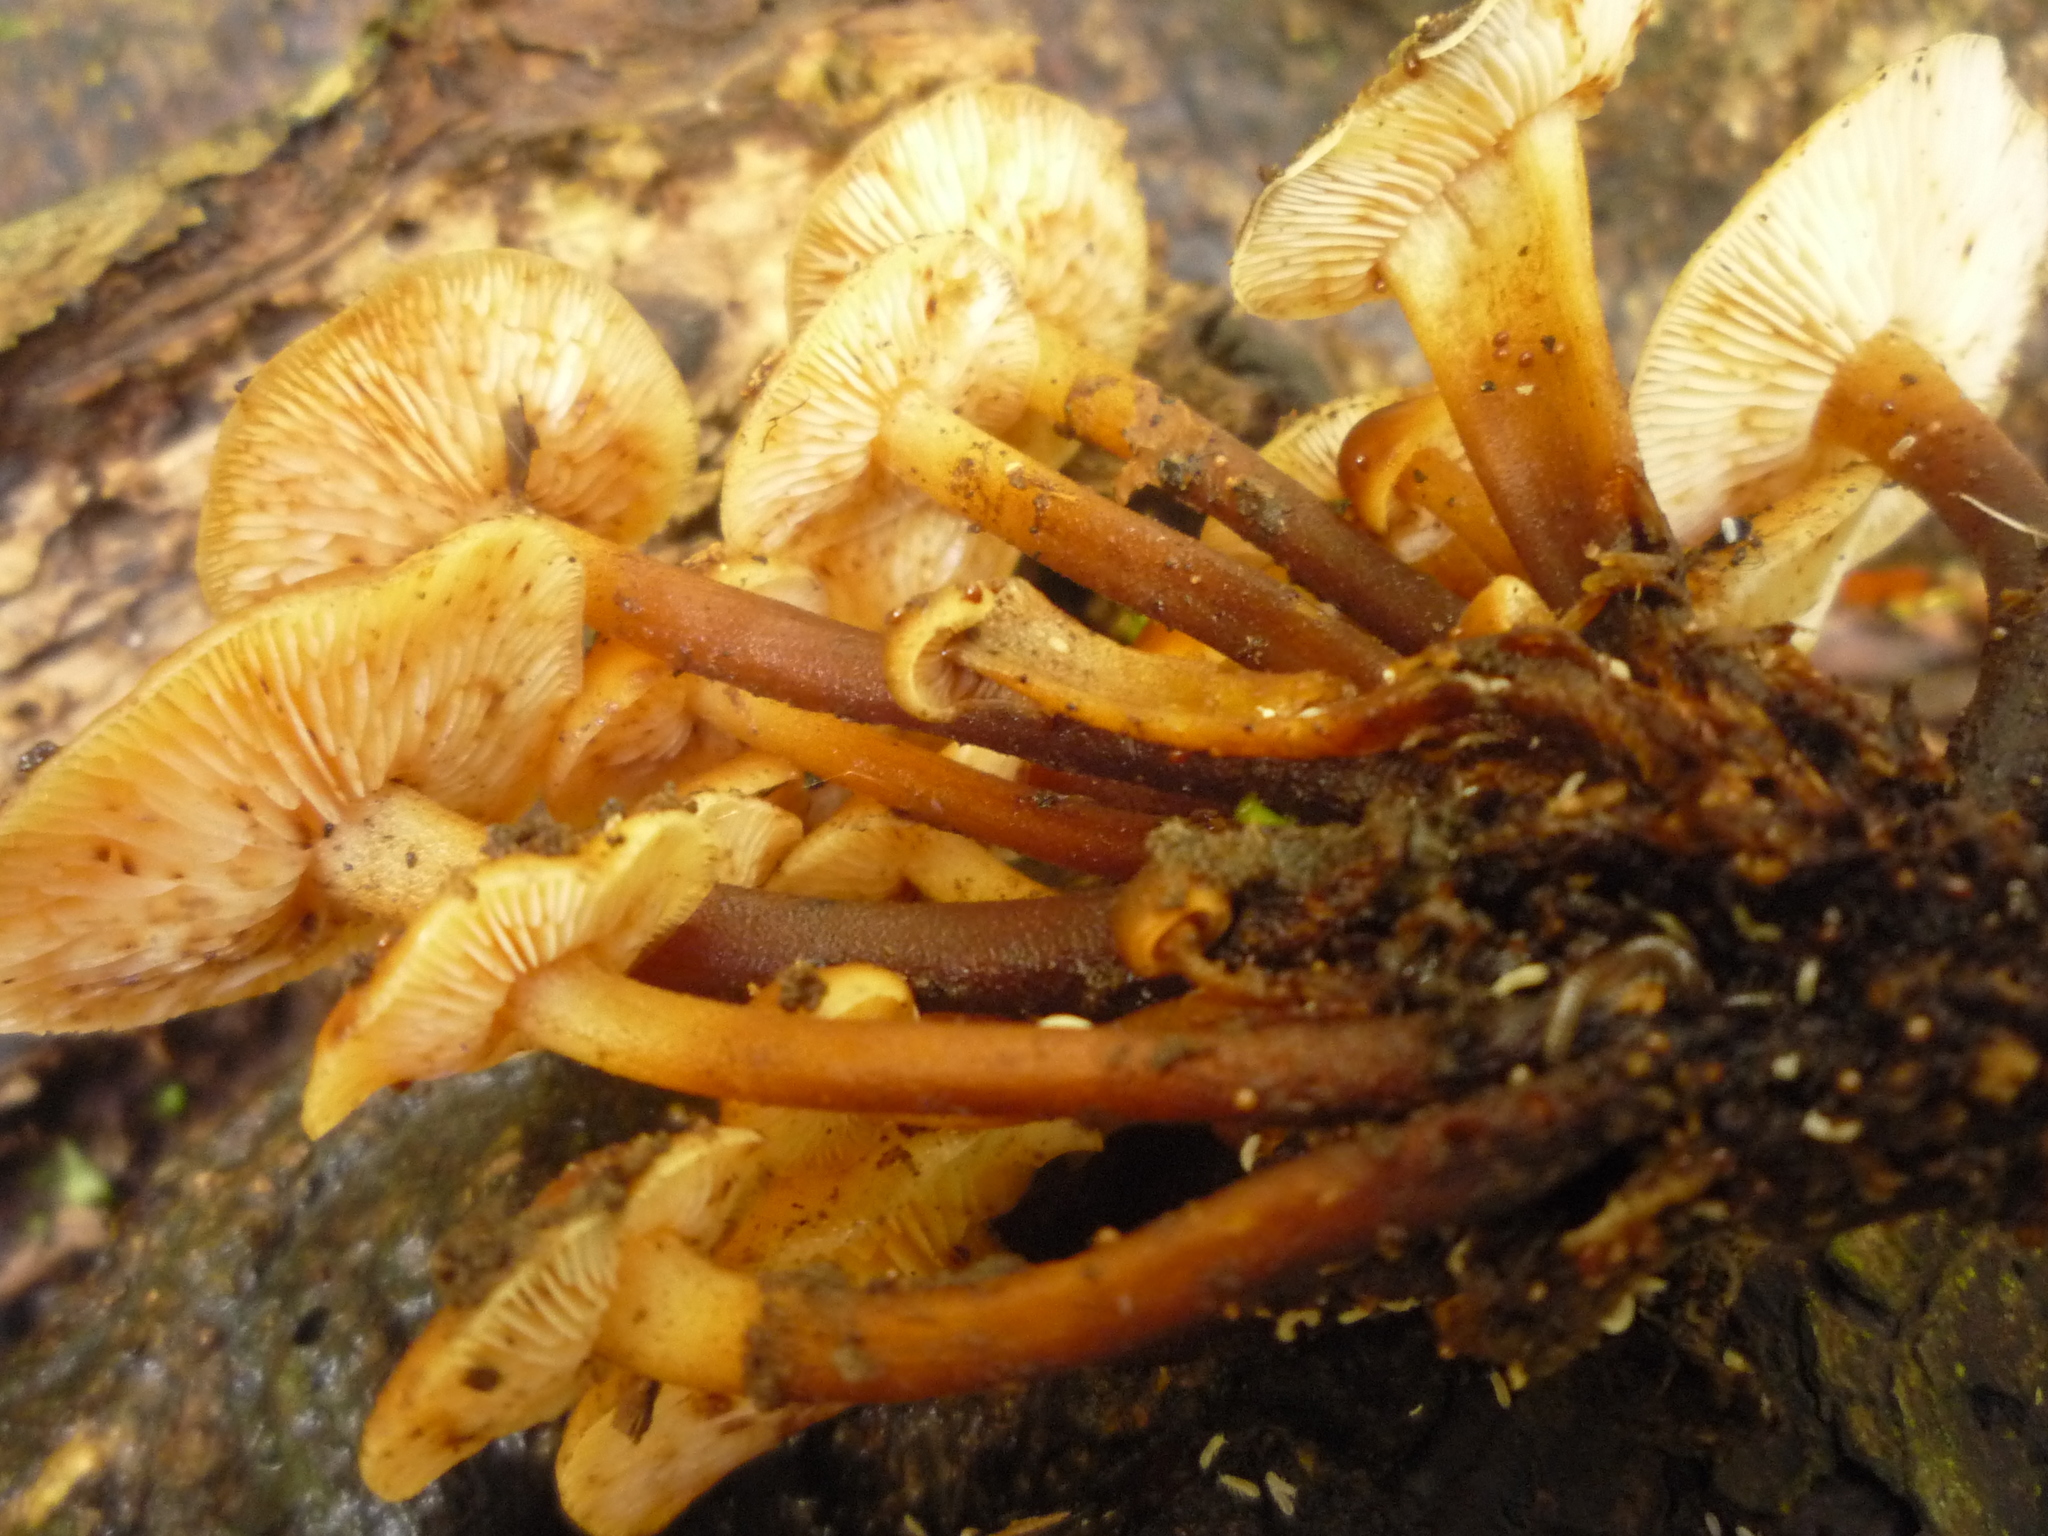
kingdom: Fungi
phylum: Basidiomycota
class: Agaricomycetes
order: Agaricales
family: Physalacriaceae
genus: Flammulina
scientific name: Flammulina velutipes
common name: Velvet shank
